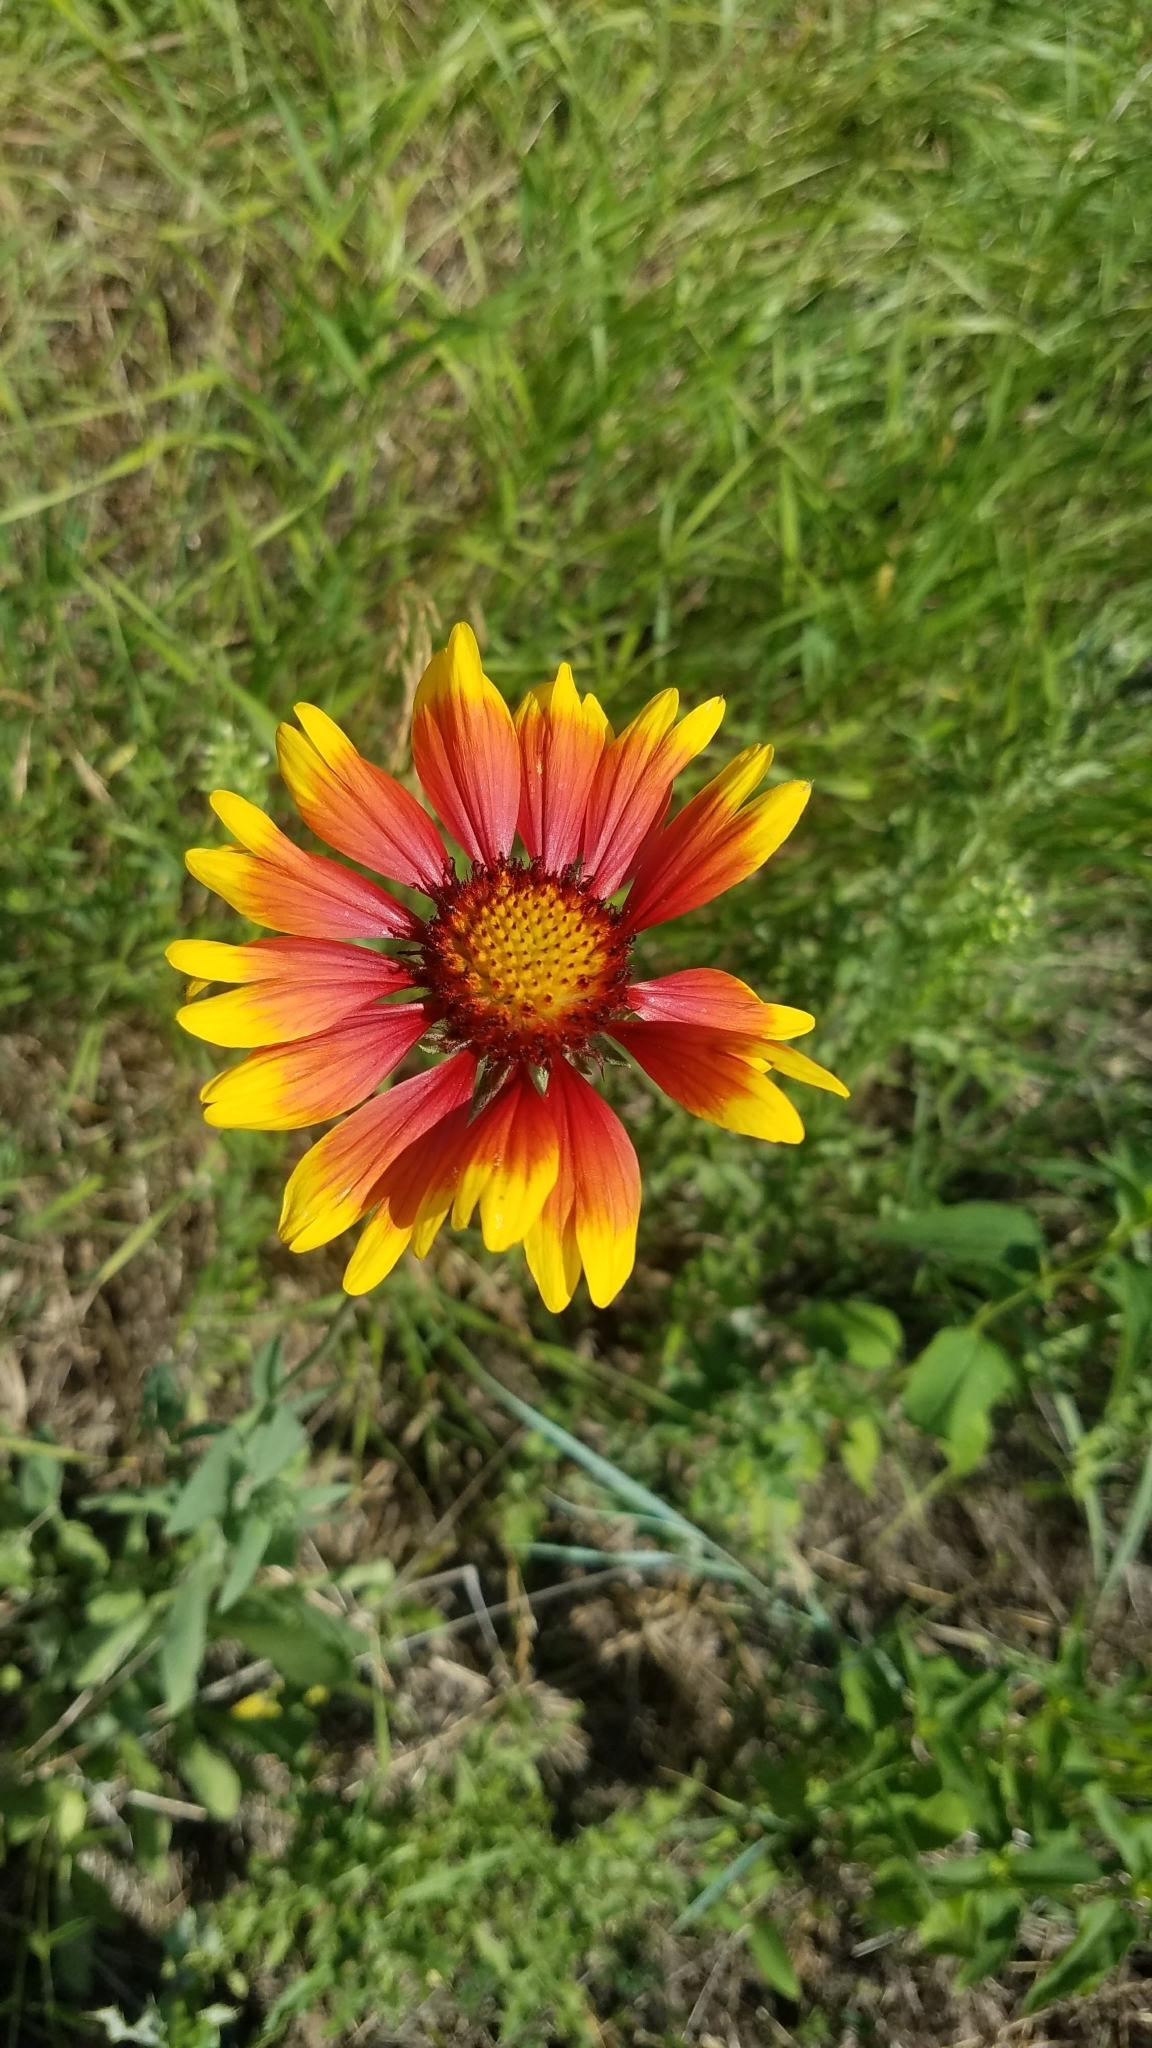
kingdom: Plantae
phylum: Tracheophyta
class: Magnoliopsida
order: Asterales
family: Asteraceae
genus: Gaillardia
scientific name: Gaillardia aristata
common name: Blanket-flower
